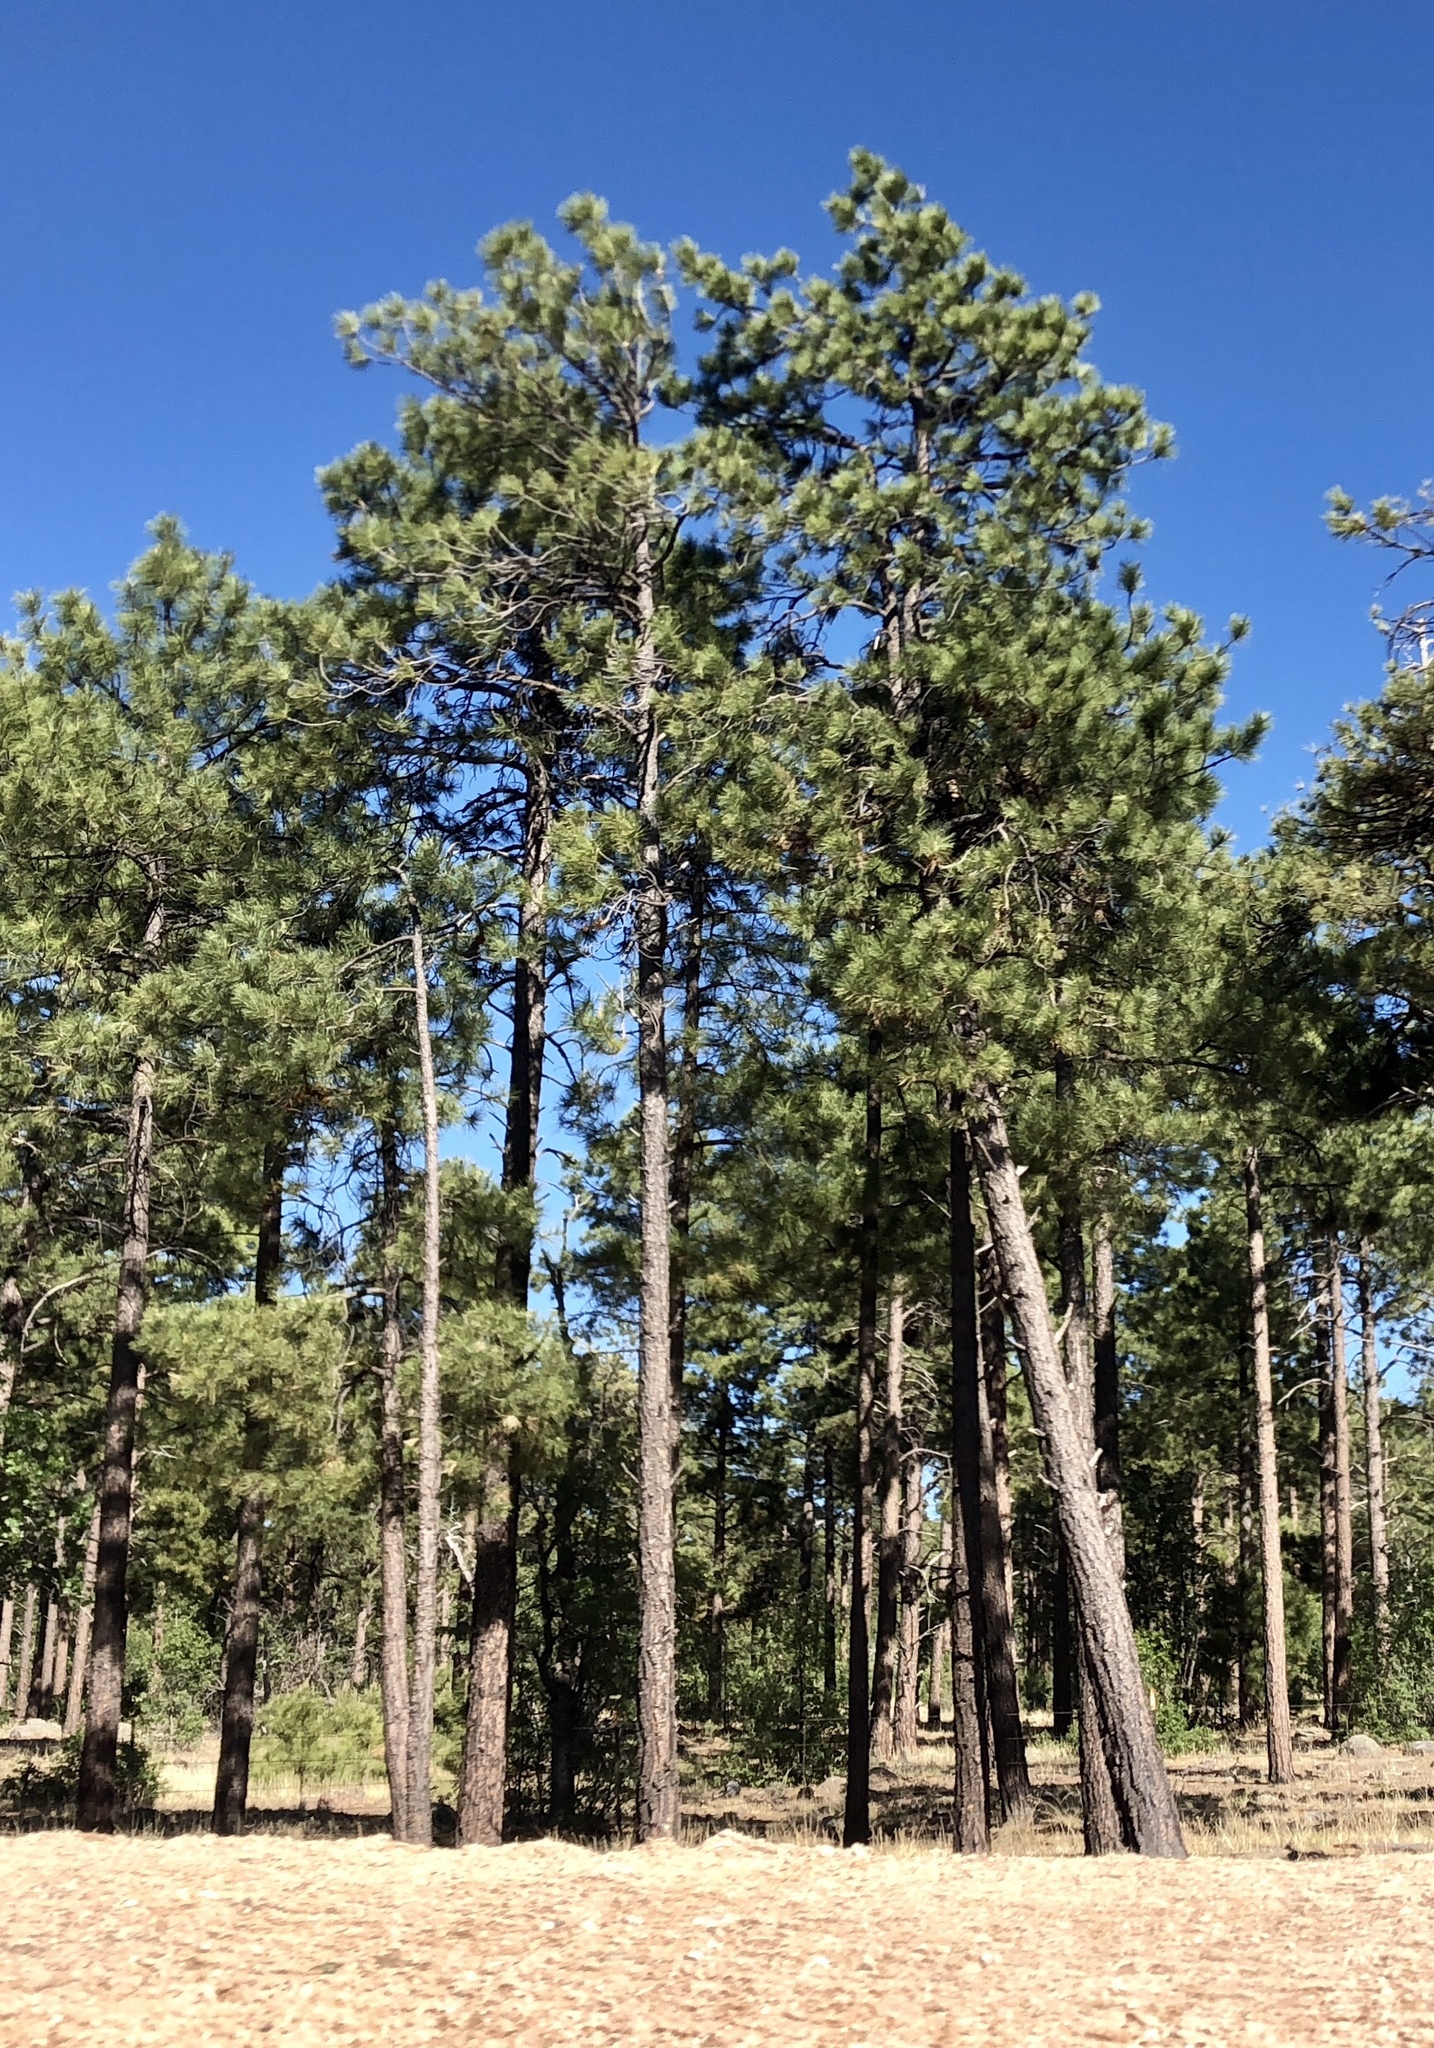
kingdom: Plantae
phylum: Tracheophyta
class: Pinopsida
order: Pinales
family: Pinaceae
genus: Pinus
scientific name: Pinus ponderosa
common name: Western yellow-pine
